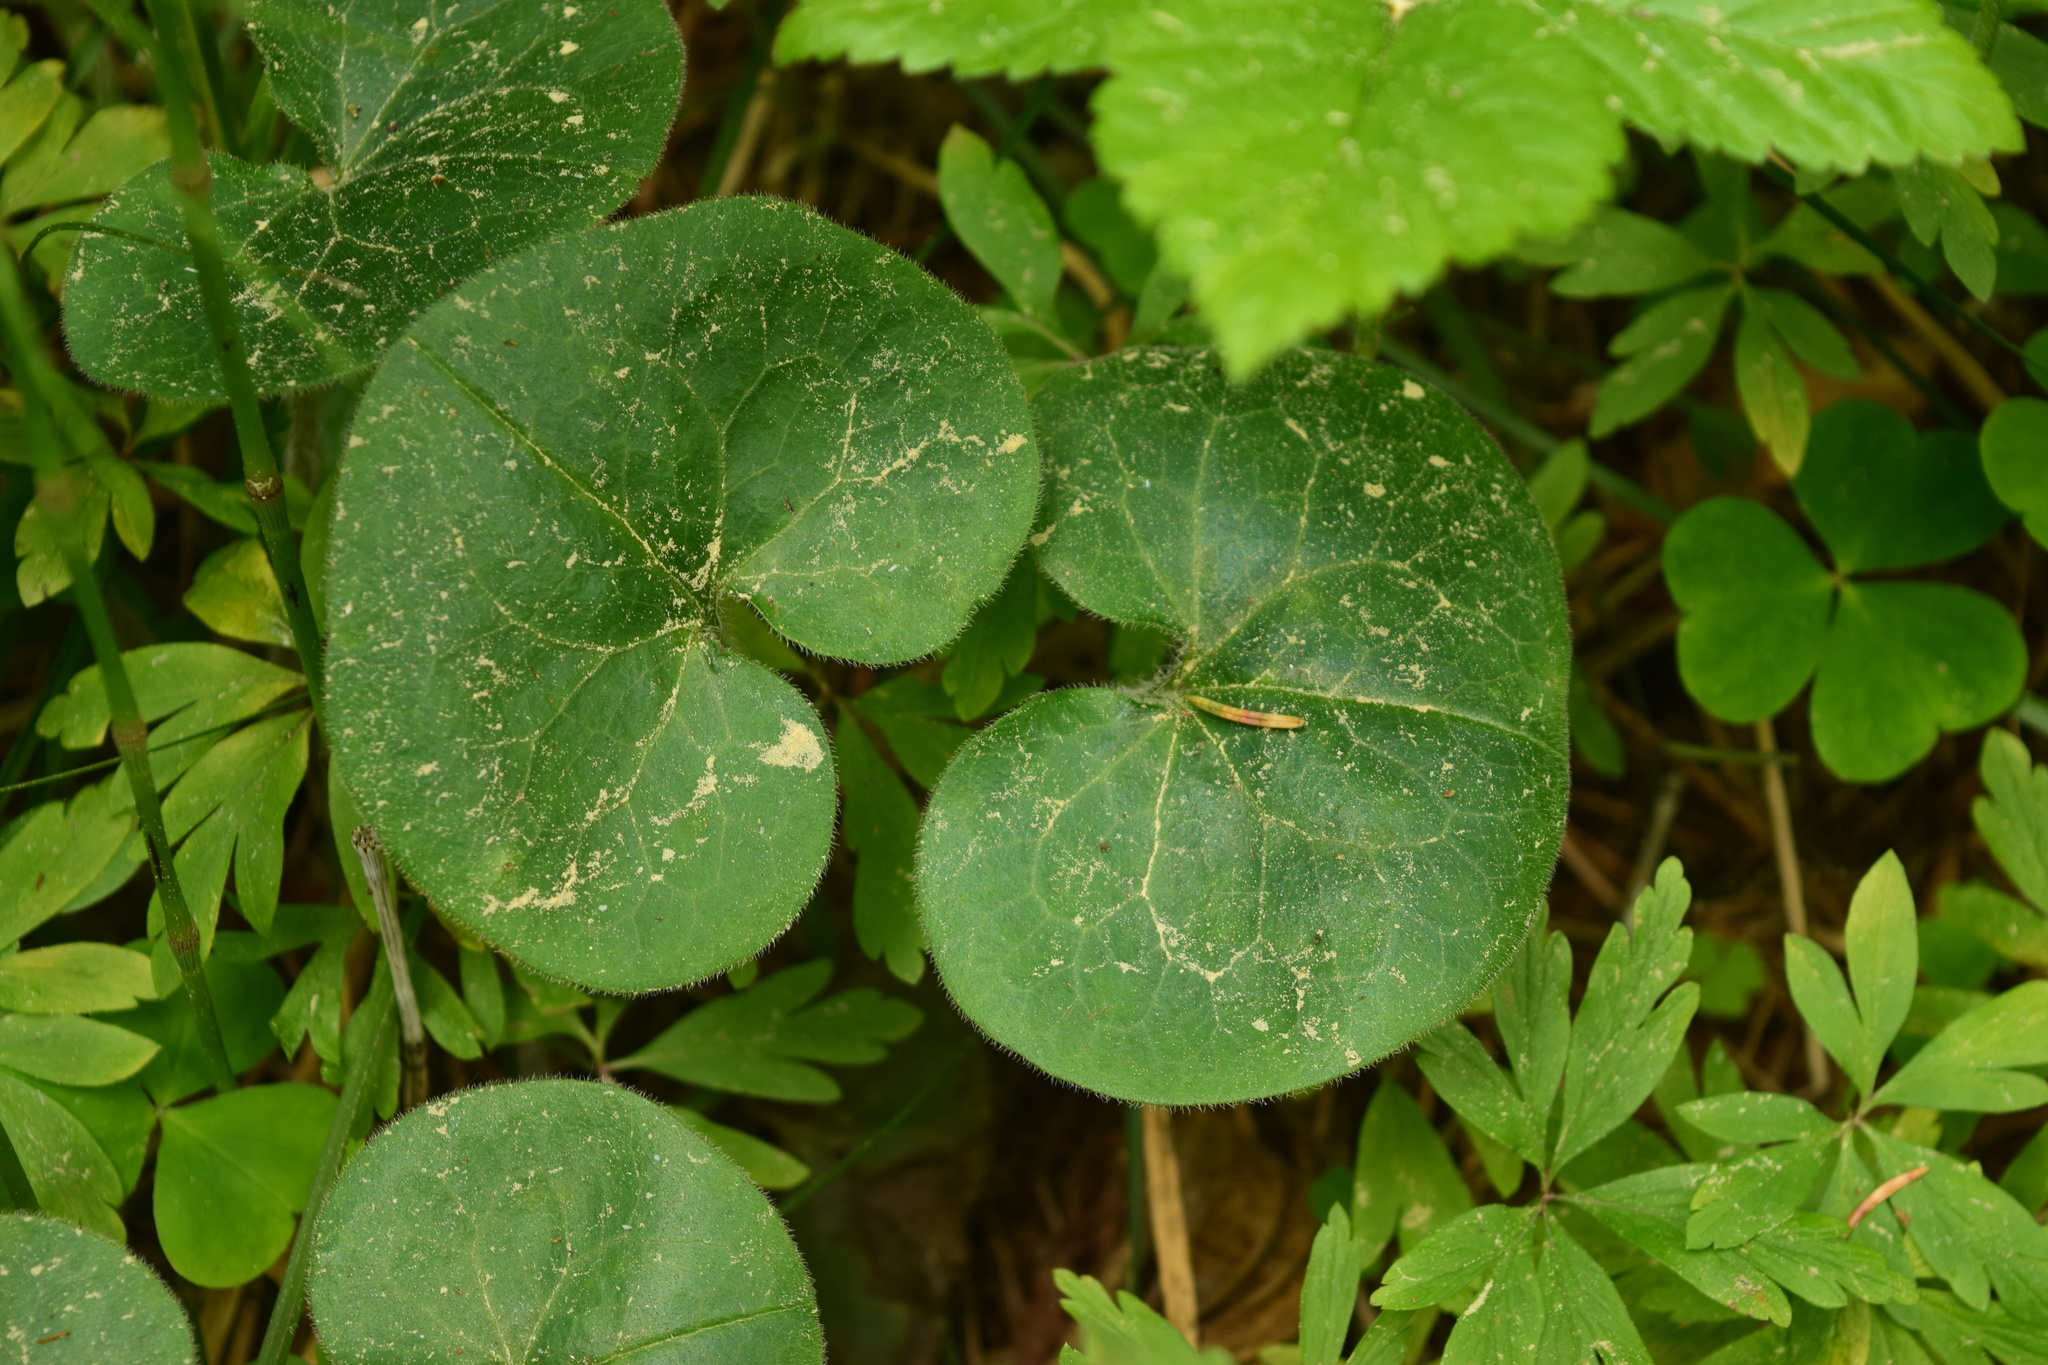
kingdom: Plantae
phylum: Tracheophyta
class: Magnoliopsida
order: Piperales
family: Aristolochiaceae
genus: Asarum
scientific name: Asarum europaeum
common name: Asarabacca
